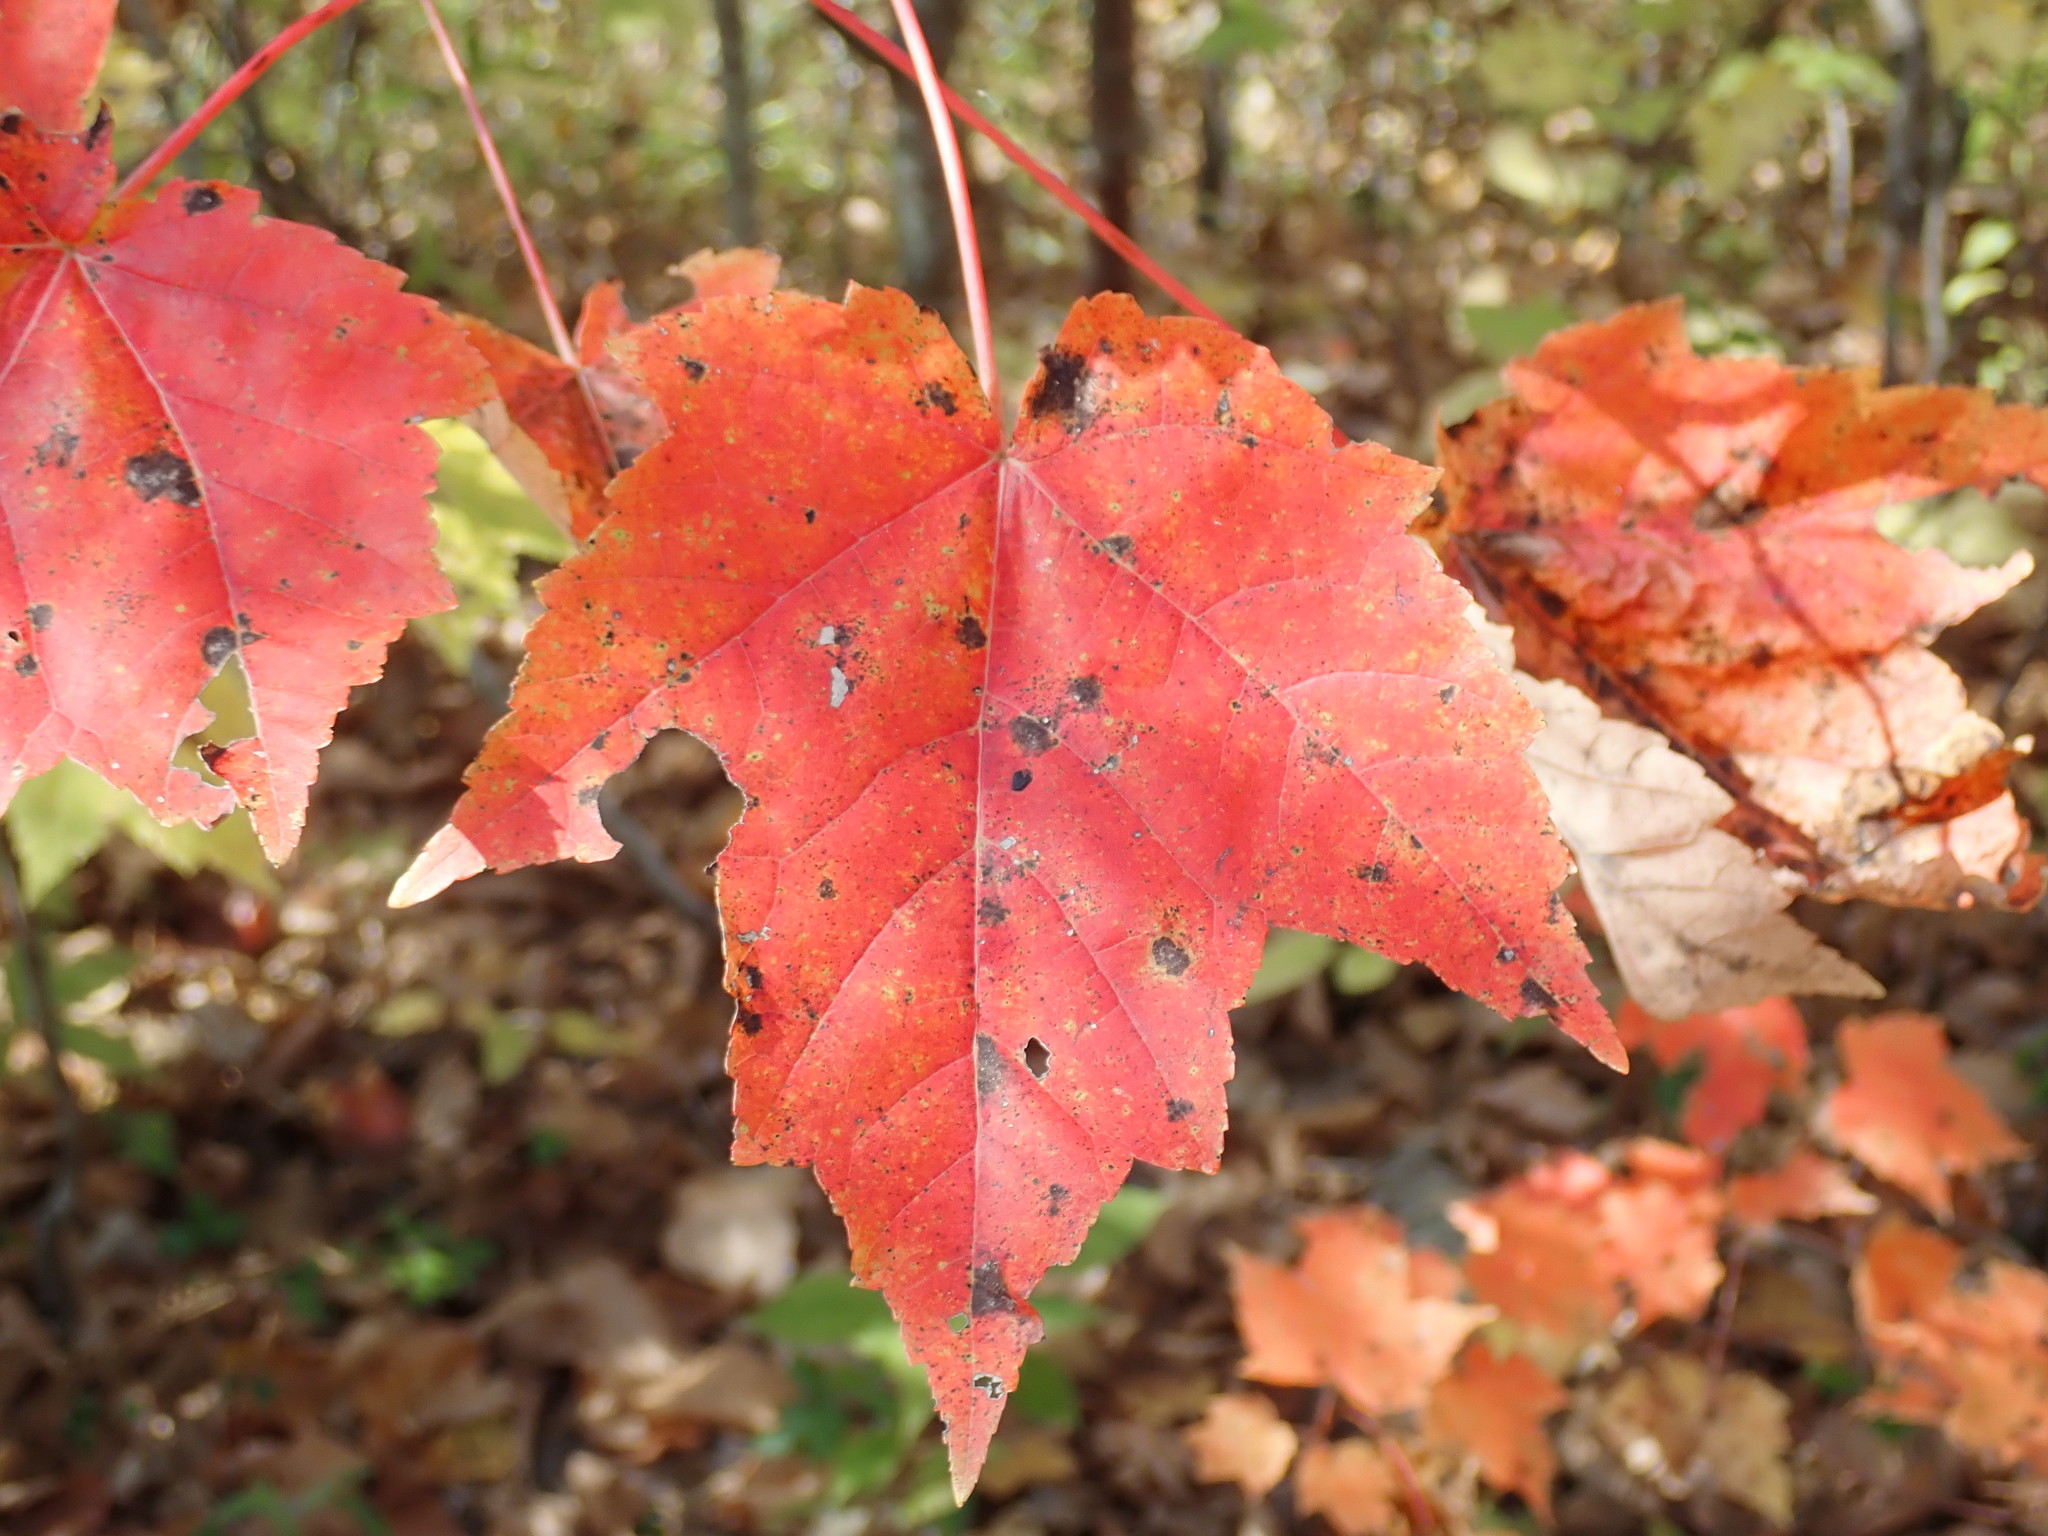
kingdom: Plantae
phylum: Tracheophyta
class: Magnoliopsida
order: Sapindales
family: Sapindaceae
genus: Acer
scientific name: Acer rubrum
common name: Red maple
